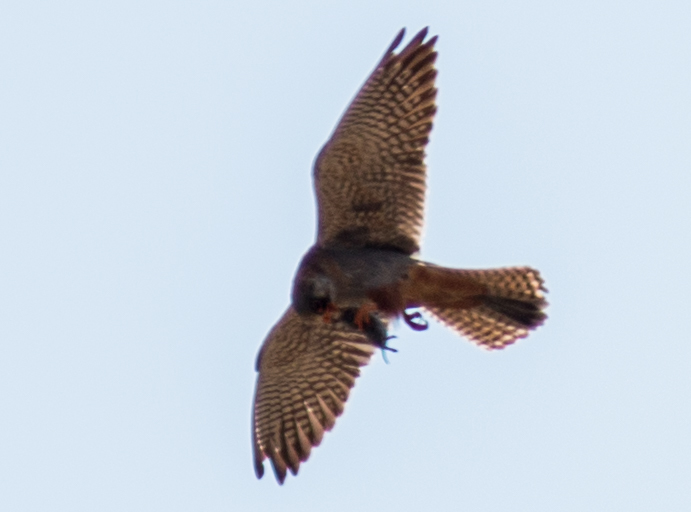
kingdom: Animalia
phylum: Chordata
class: Aves
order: Falconiformes
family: Falconidae
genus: Falco
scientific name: Falco vespertinus
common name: Red-footed falcon
